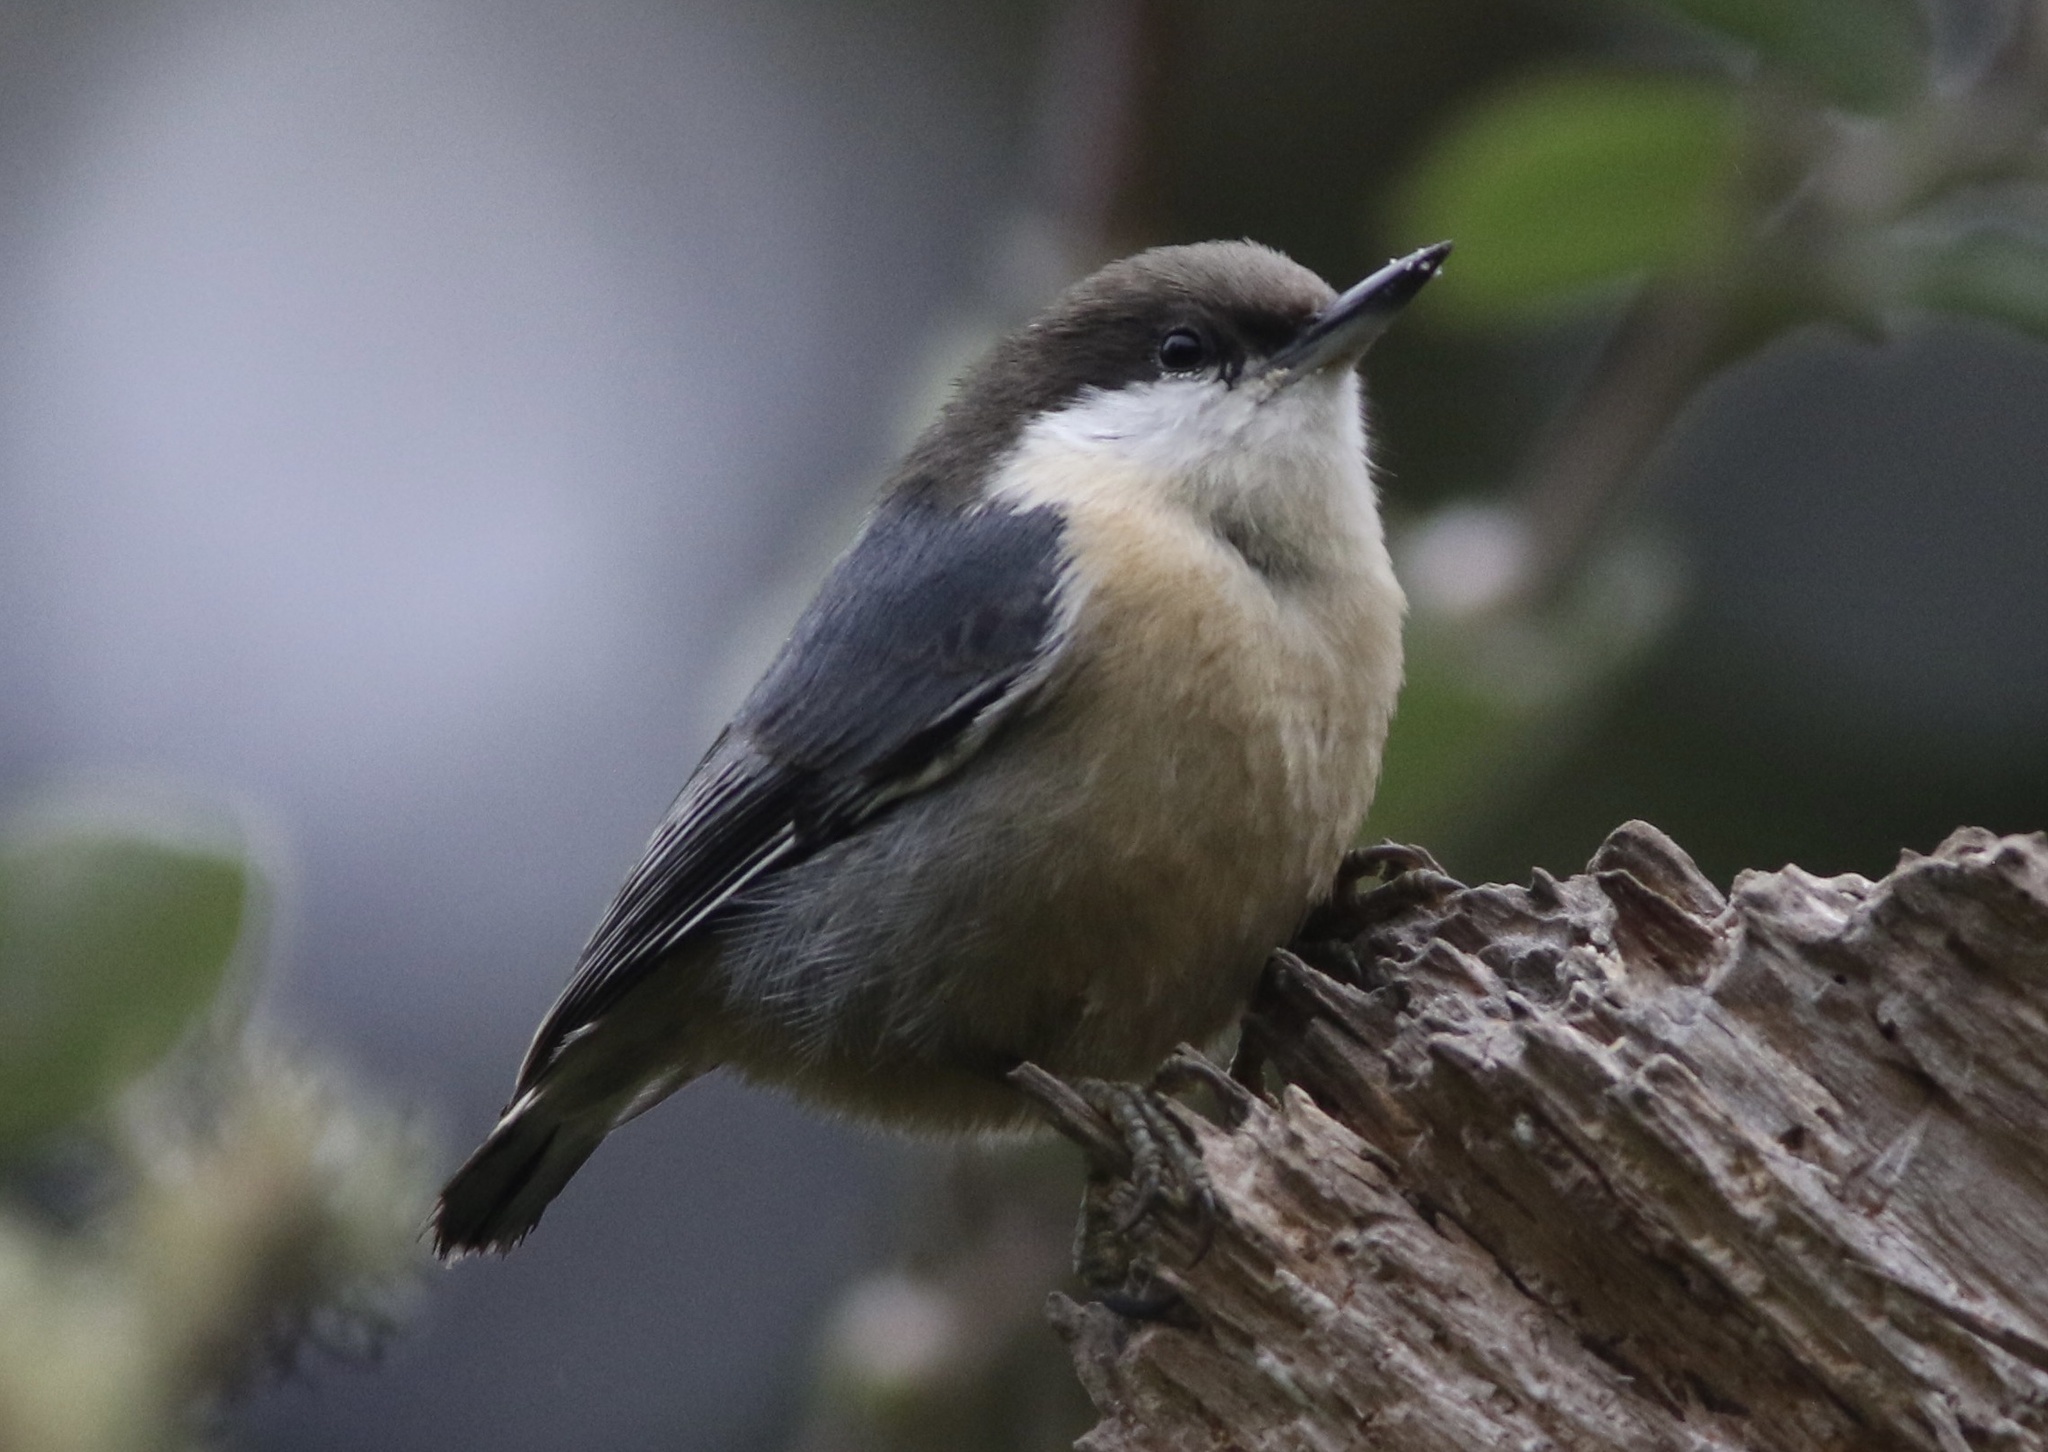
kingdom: Animalia
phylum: Chordata
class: Aves
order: Passeriformes
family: Sittidae
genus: Sitta
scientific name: Sitta pygmaea
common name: Pygmy nuthatch
